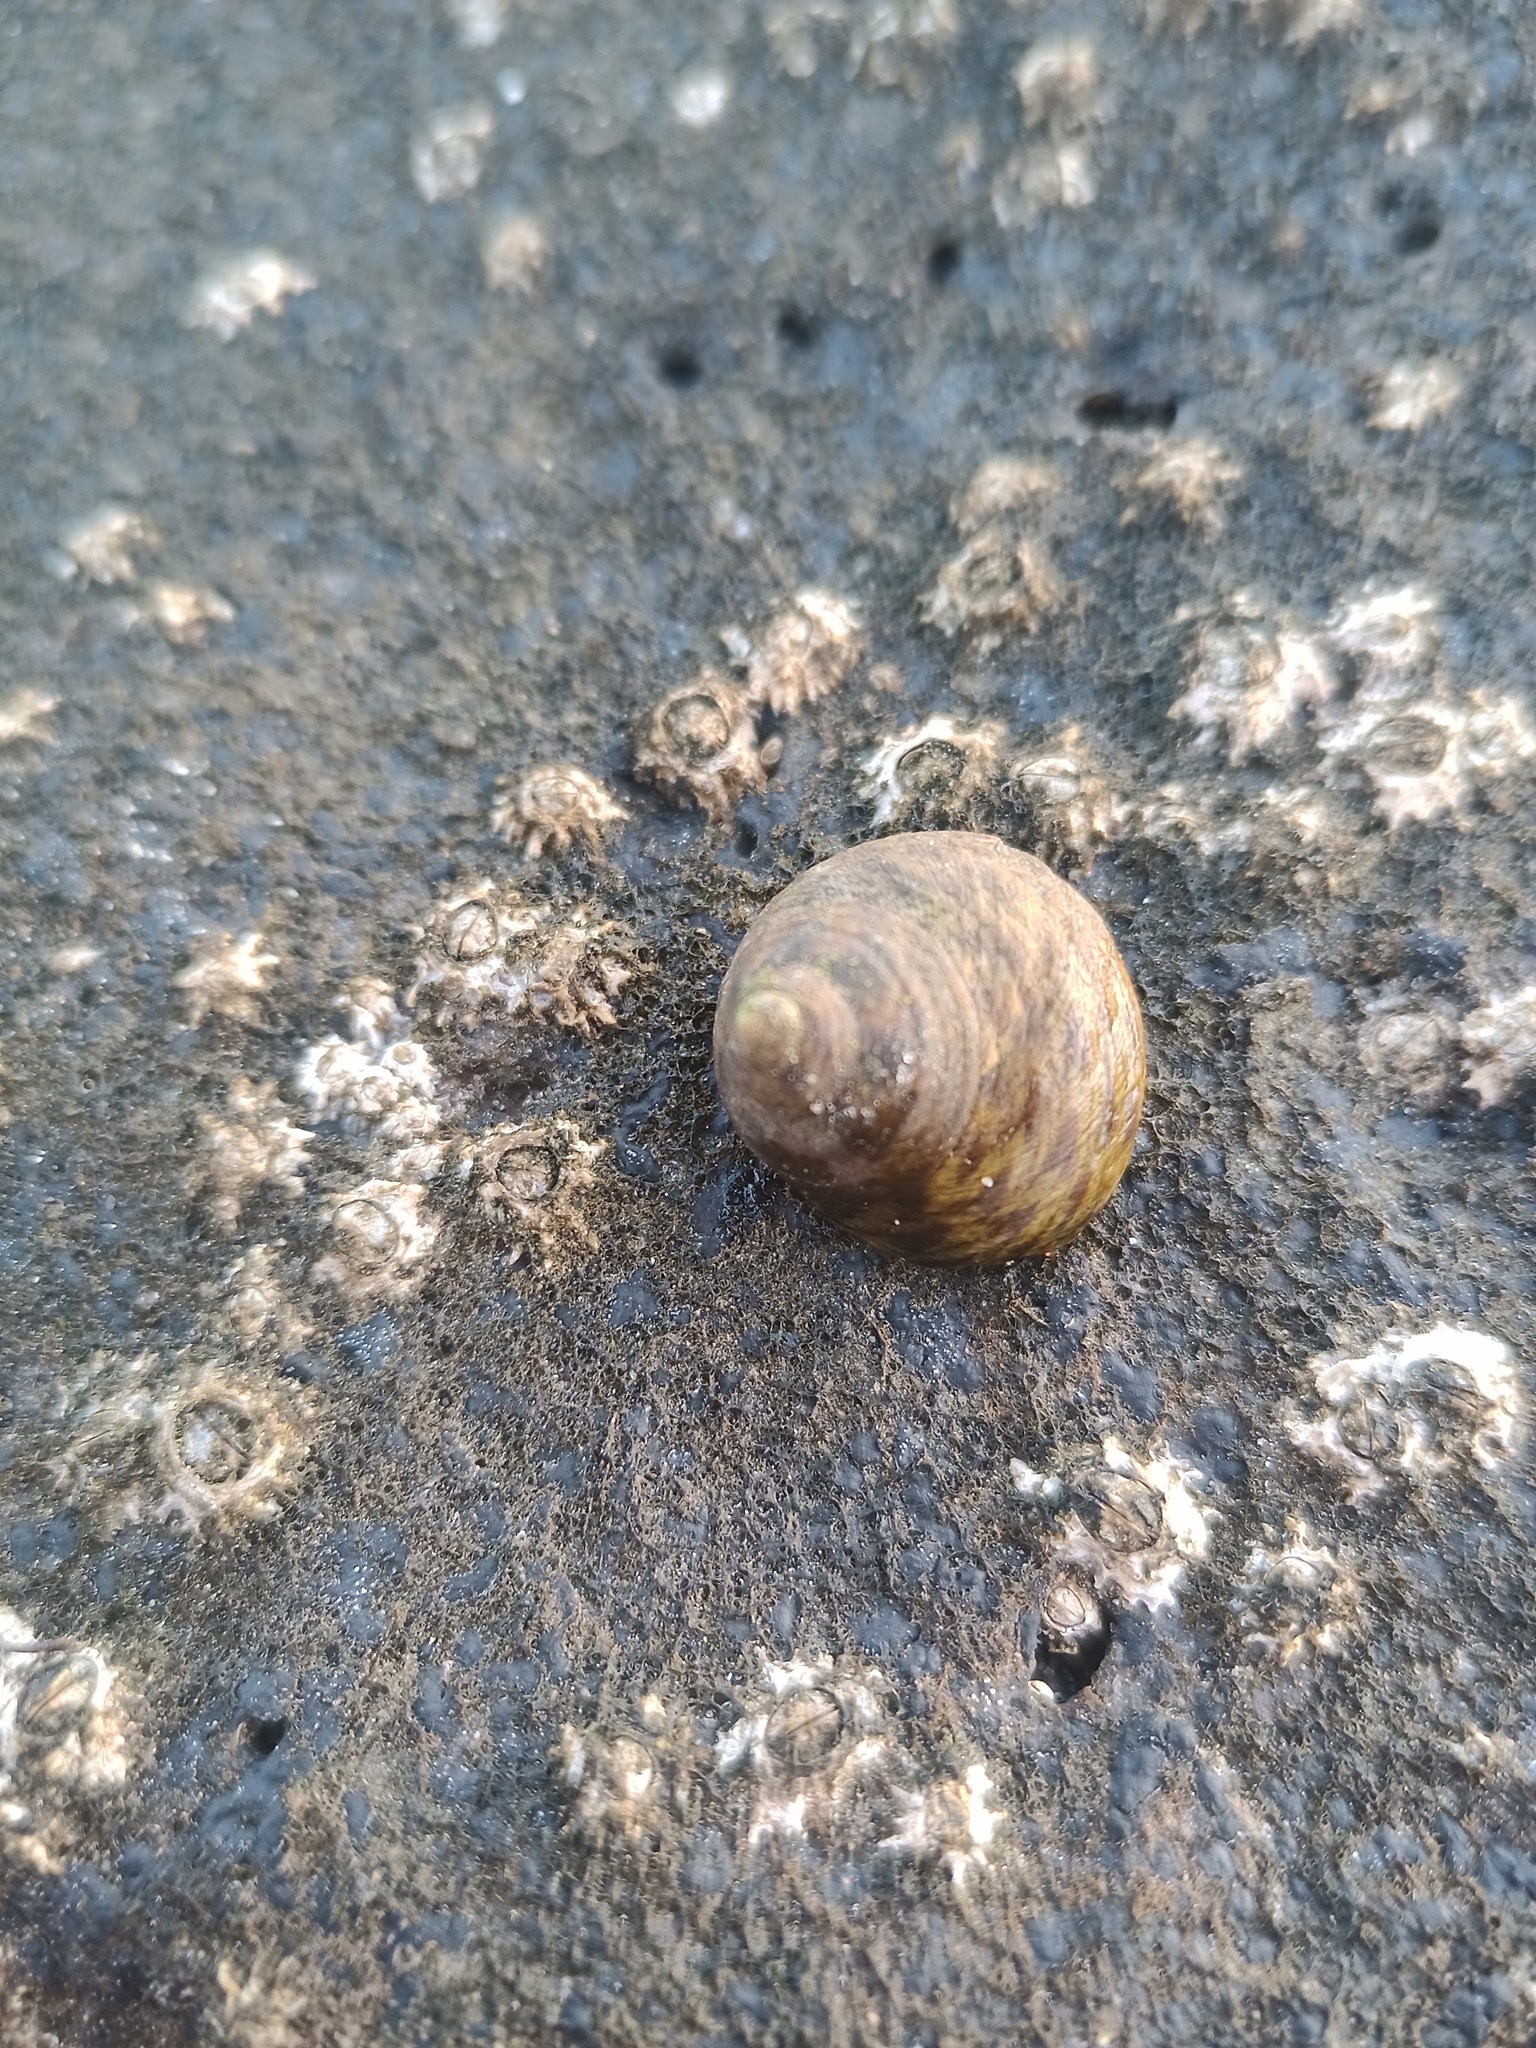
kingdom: Animalia
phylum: Mollusca
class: Gastropoda
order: Trochida
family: Trochidae
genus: Phorcus
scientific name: Phorcus sauciatus
